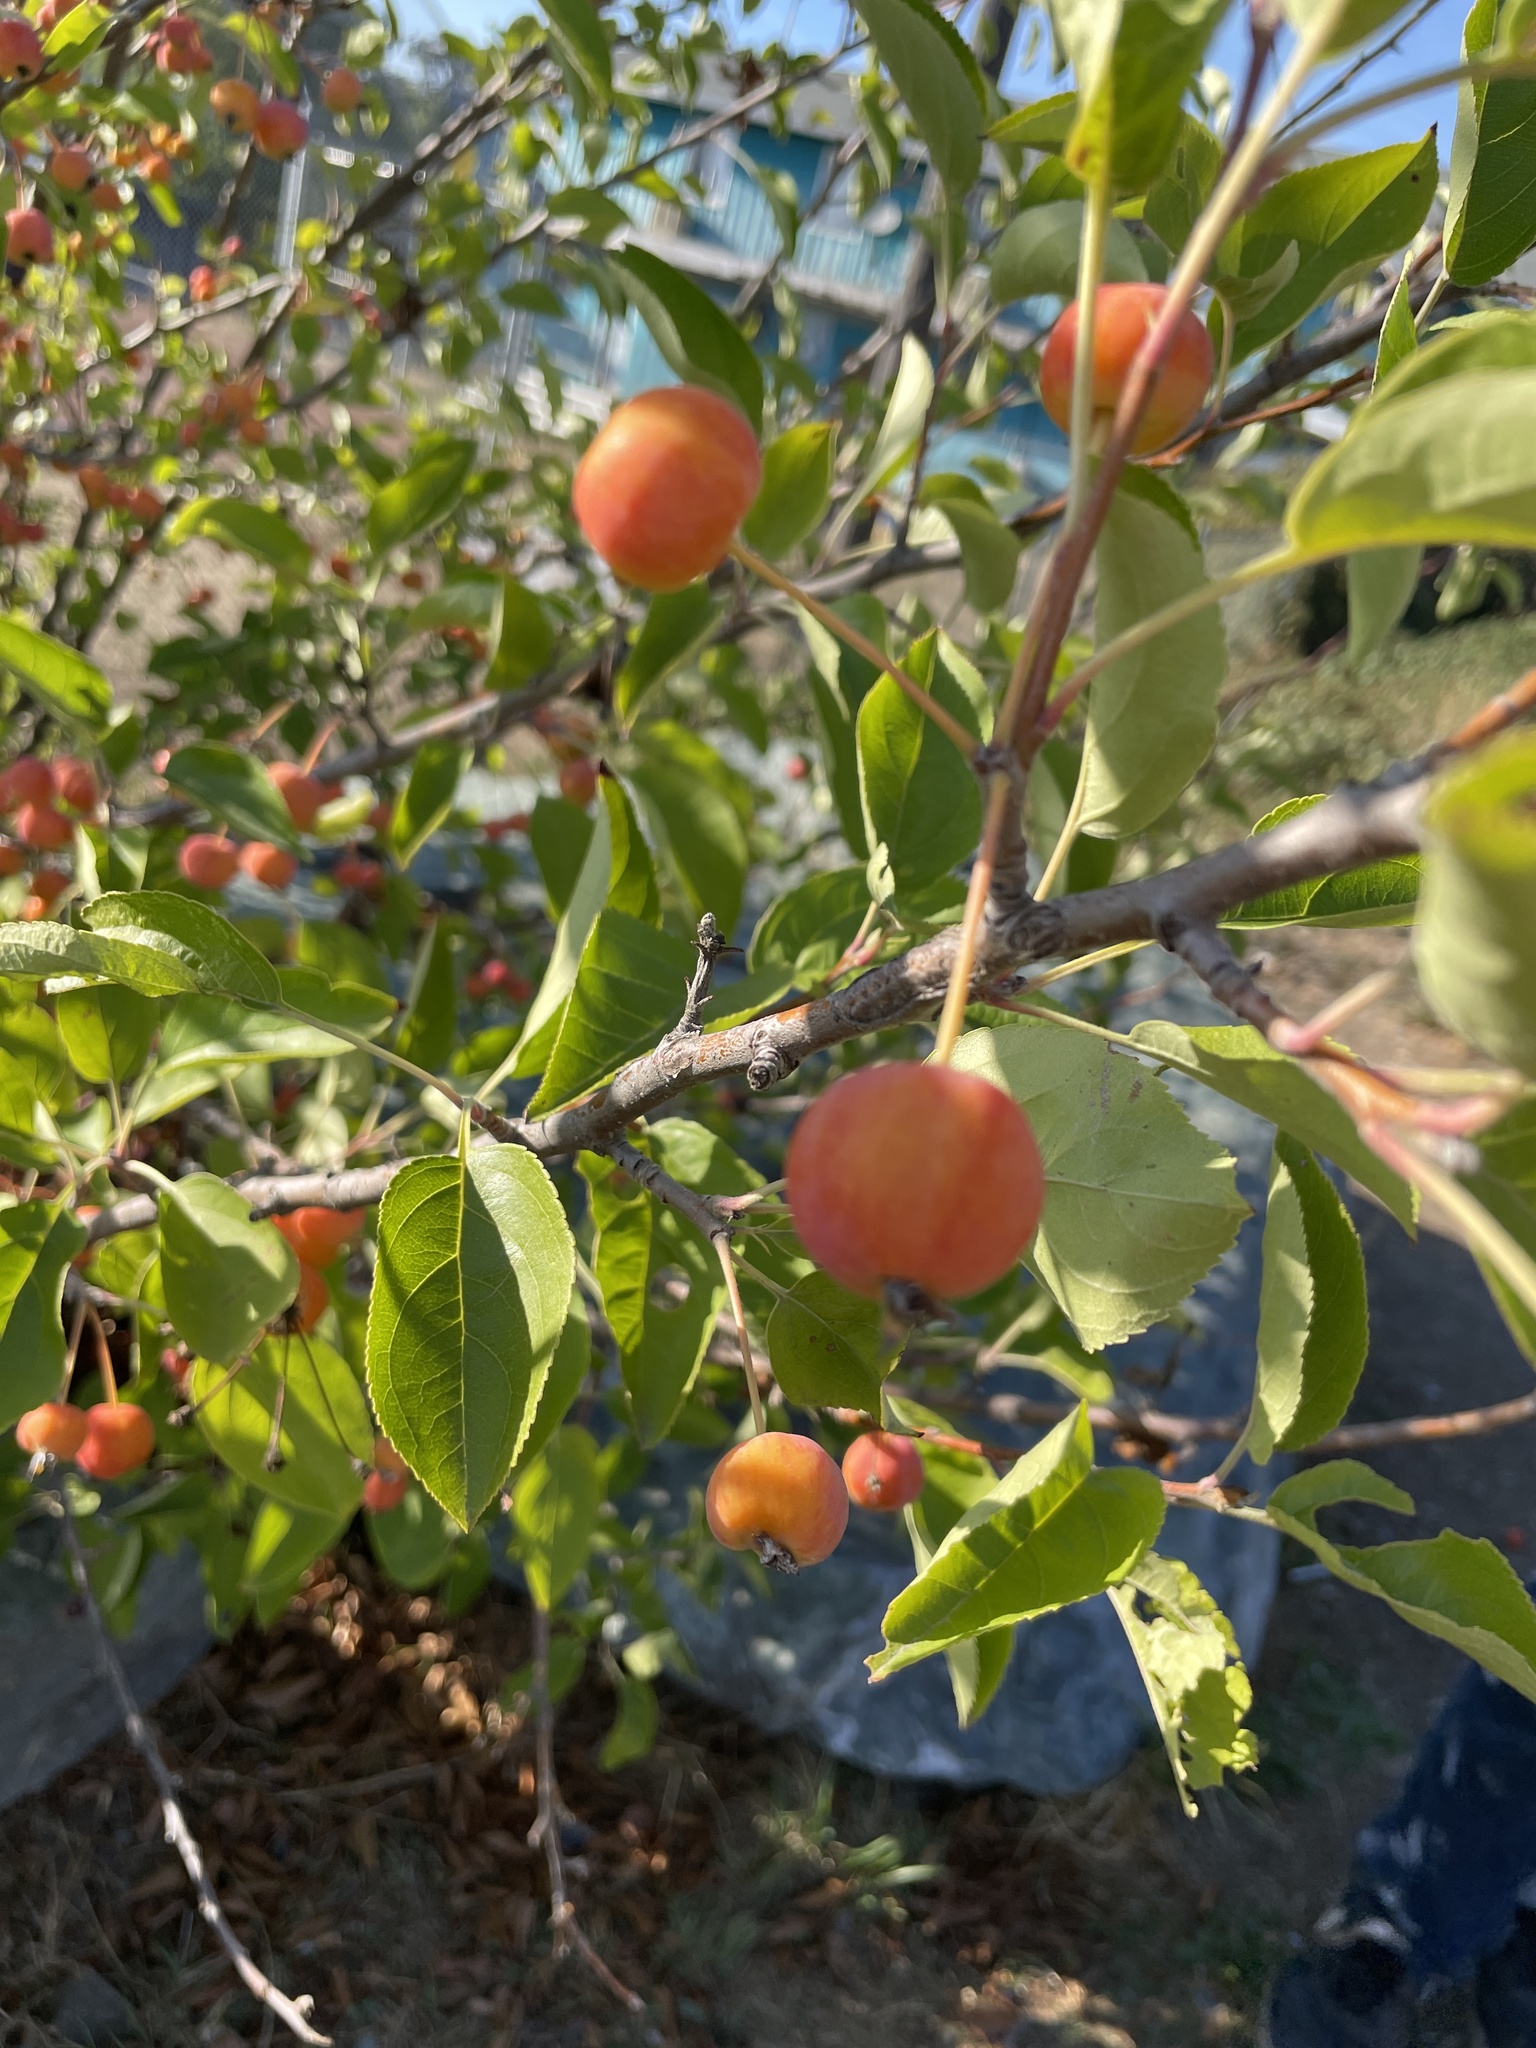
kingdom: Plantae
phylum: Tracheophyta
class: Magnoliopsida
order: Rosales
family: Rosaceae
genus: Malus
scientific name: Malus domestica
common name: Apple
